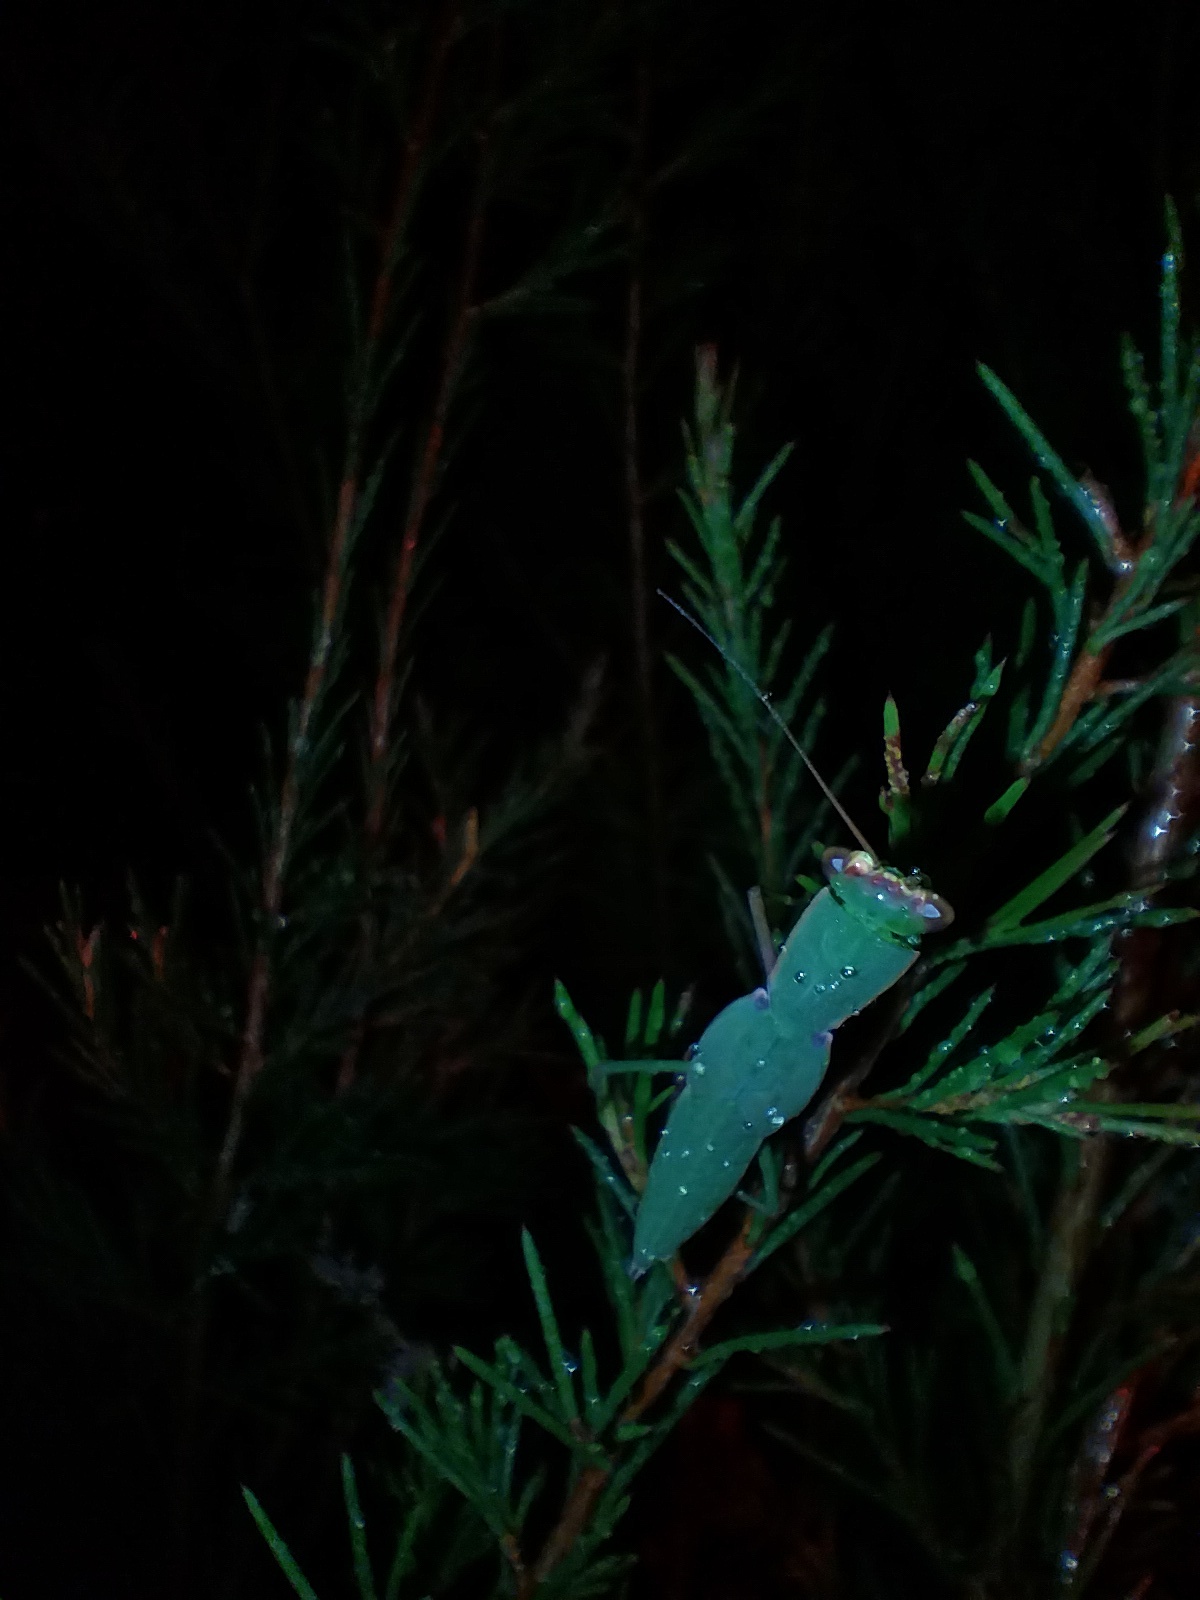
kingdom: Animalia
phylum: Arthropoda
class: Insecta
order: Mantodea
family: Mantidae
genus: Orthodera
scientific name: Orthodera ministralis
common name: Mantis
